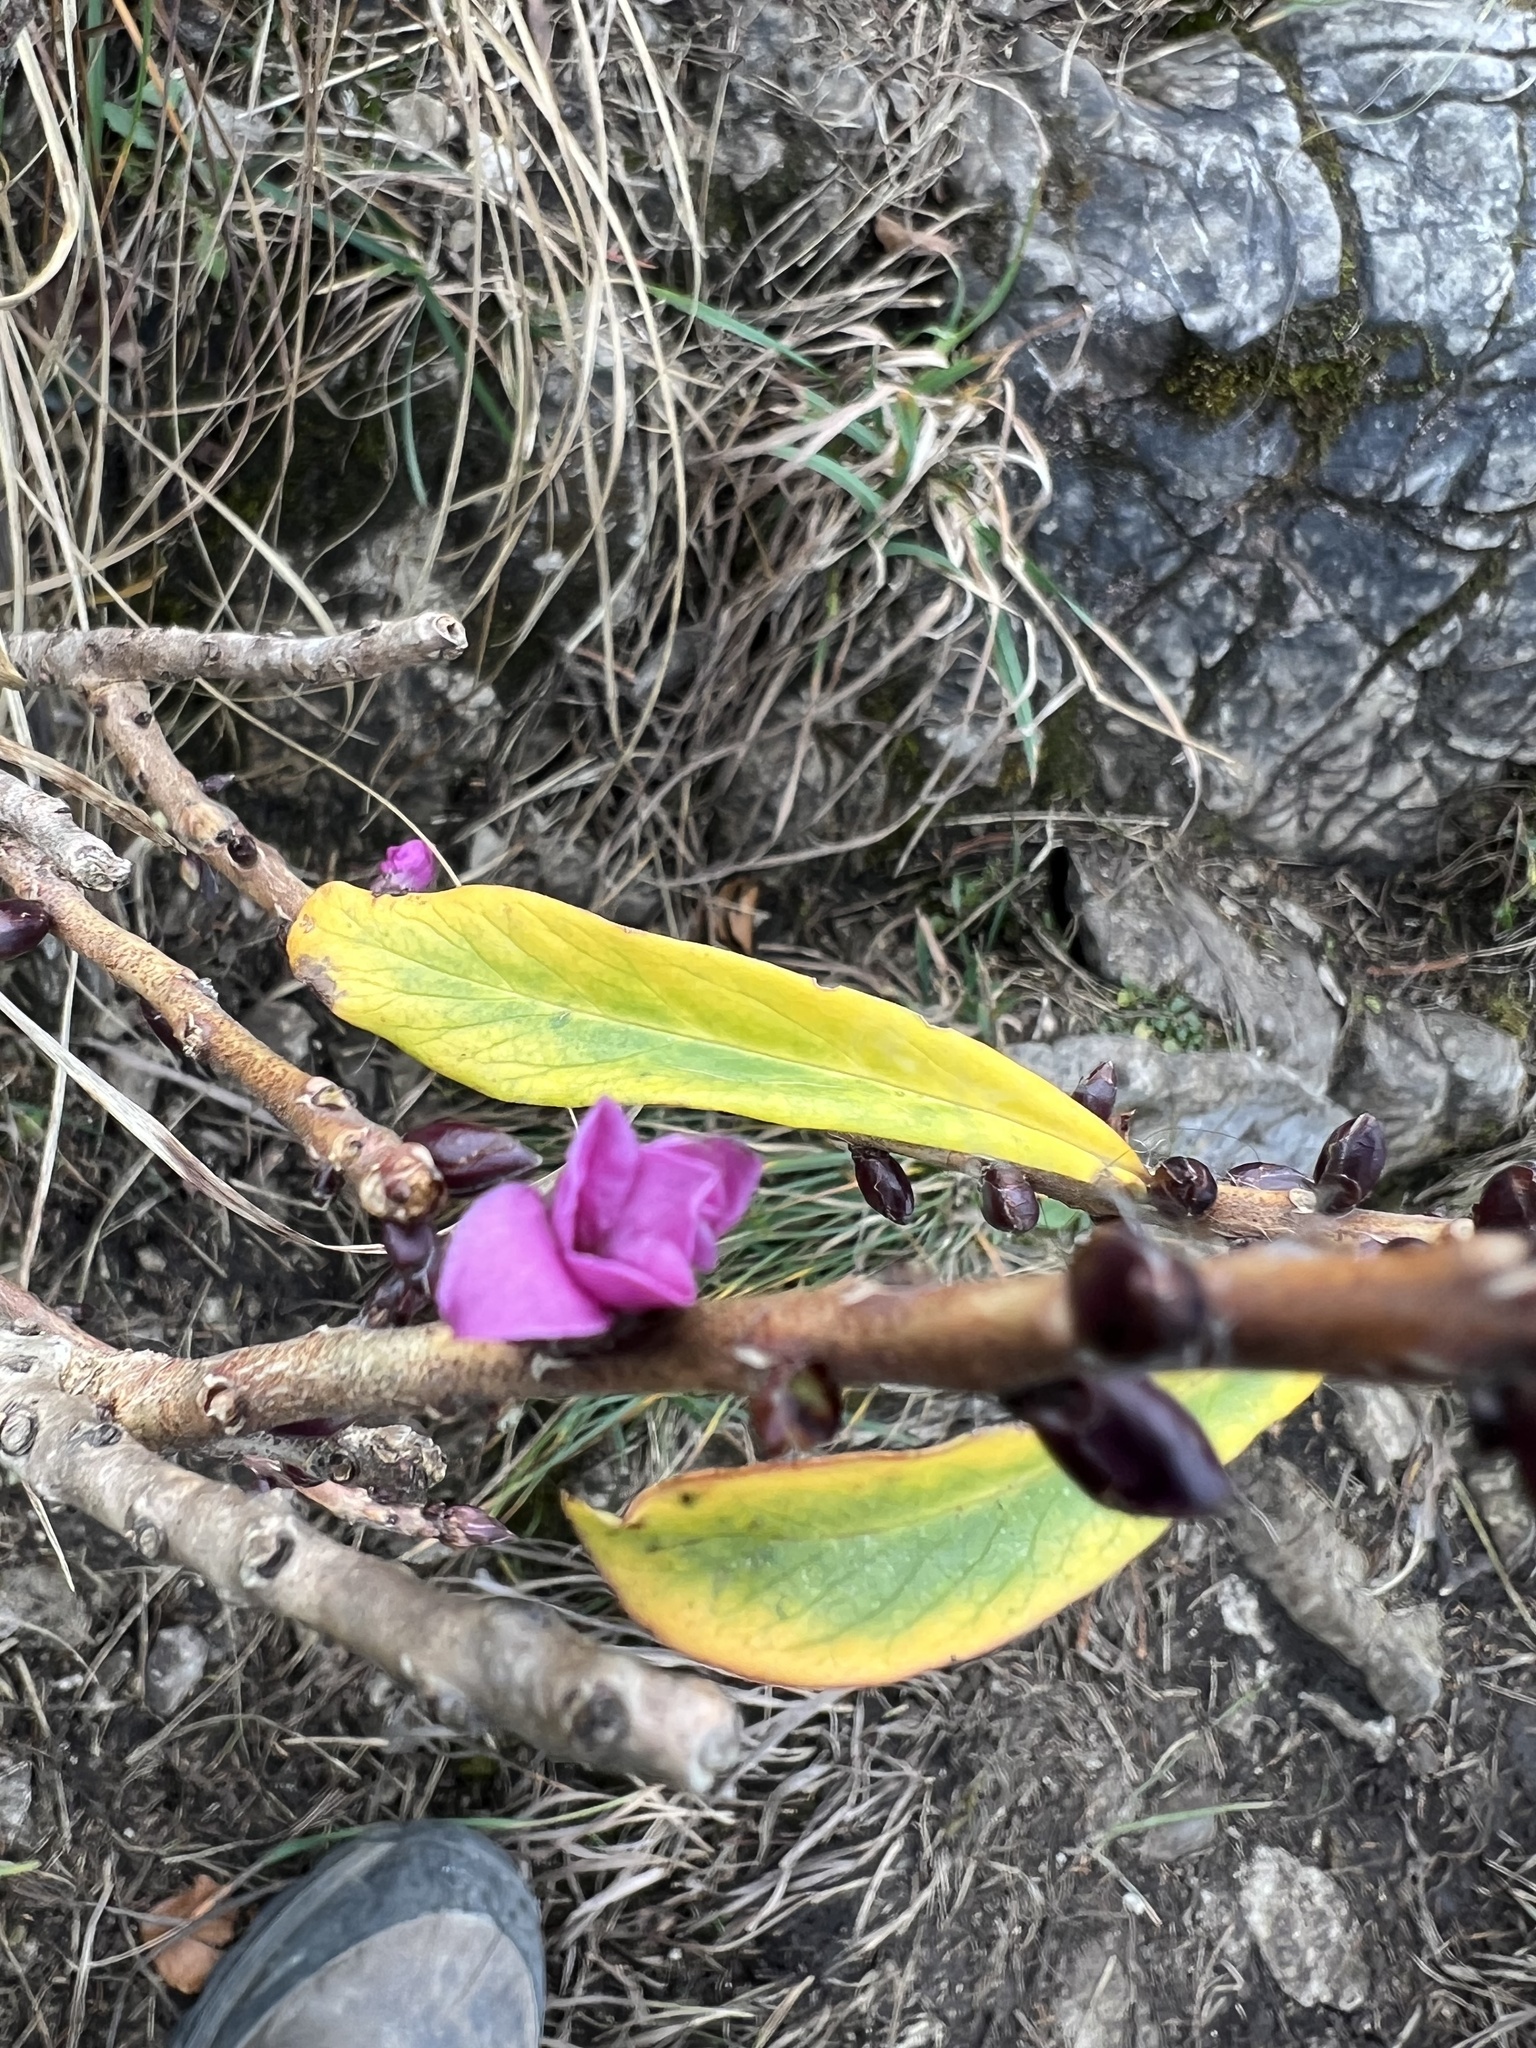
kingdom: Plantae
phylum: Tracheophyta
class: Magnoliopsida
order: Malvales
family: Thymelaeaceae
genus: Daphne
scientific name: Daphne mezereum
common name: Mezereon
